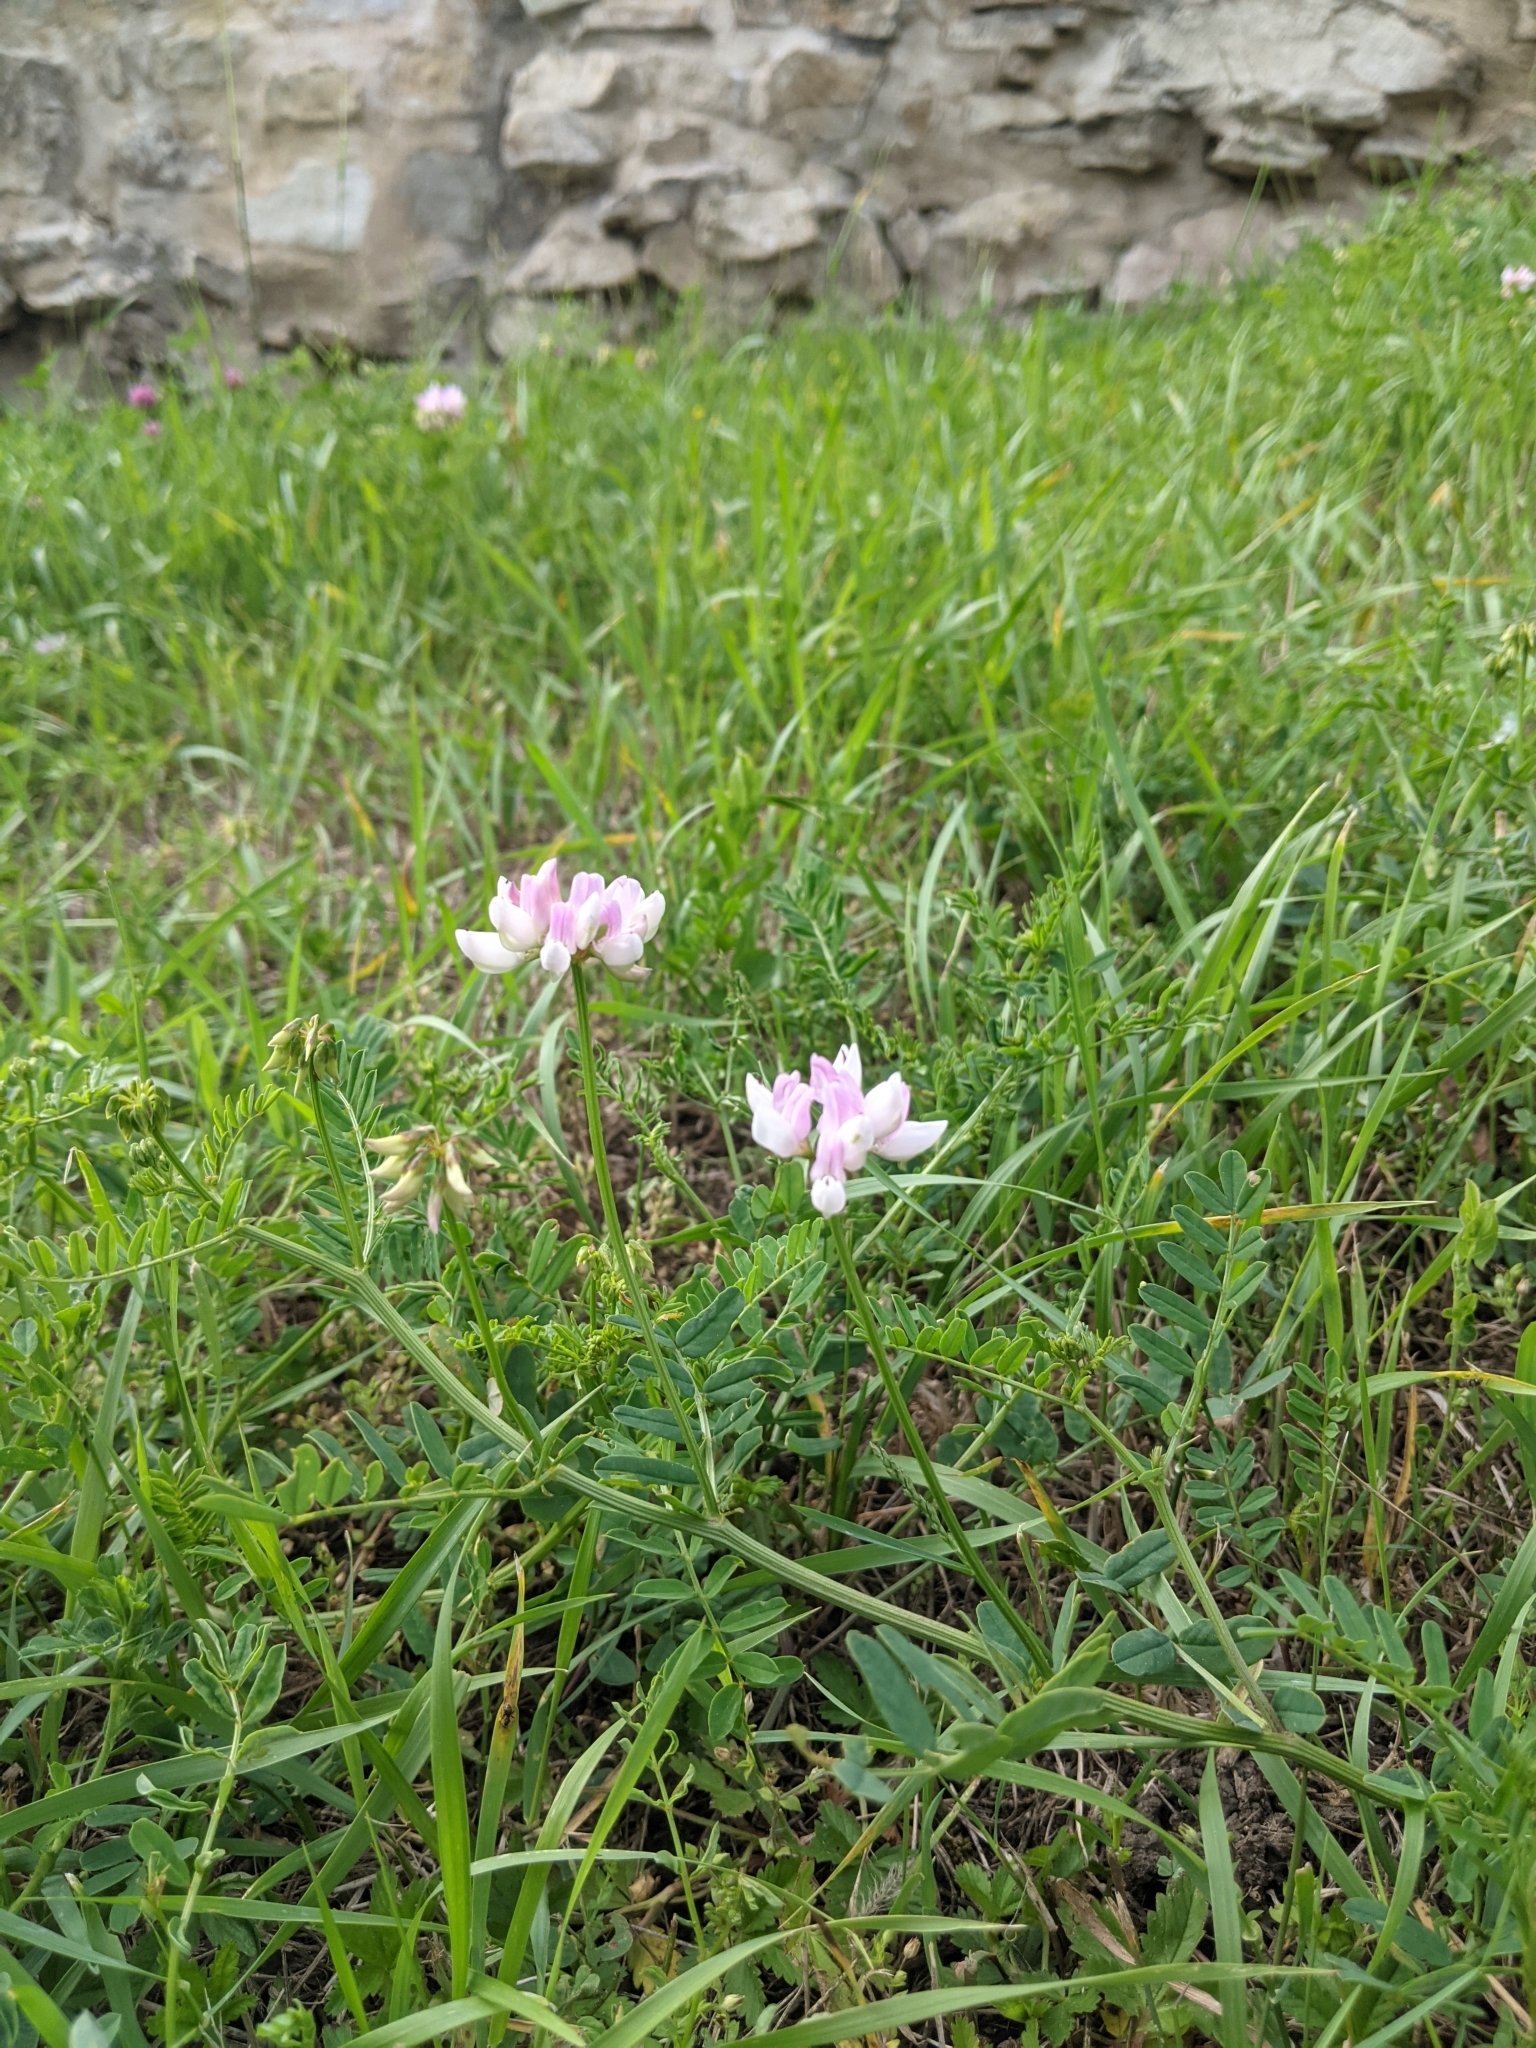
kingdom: Plantae
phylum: Tracheophyta
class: Magnoliopsida
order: Fabales
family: Fabaceae
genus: Coronilla
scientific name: Coronilla varia
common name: Crownvetch
